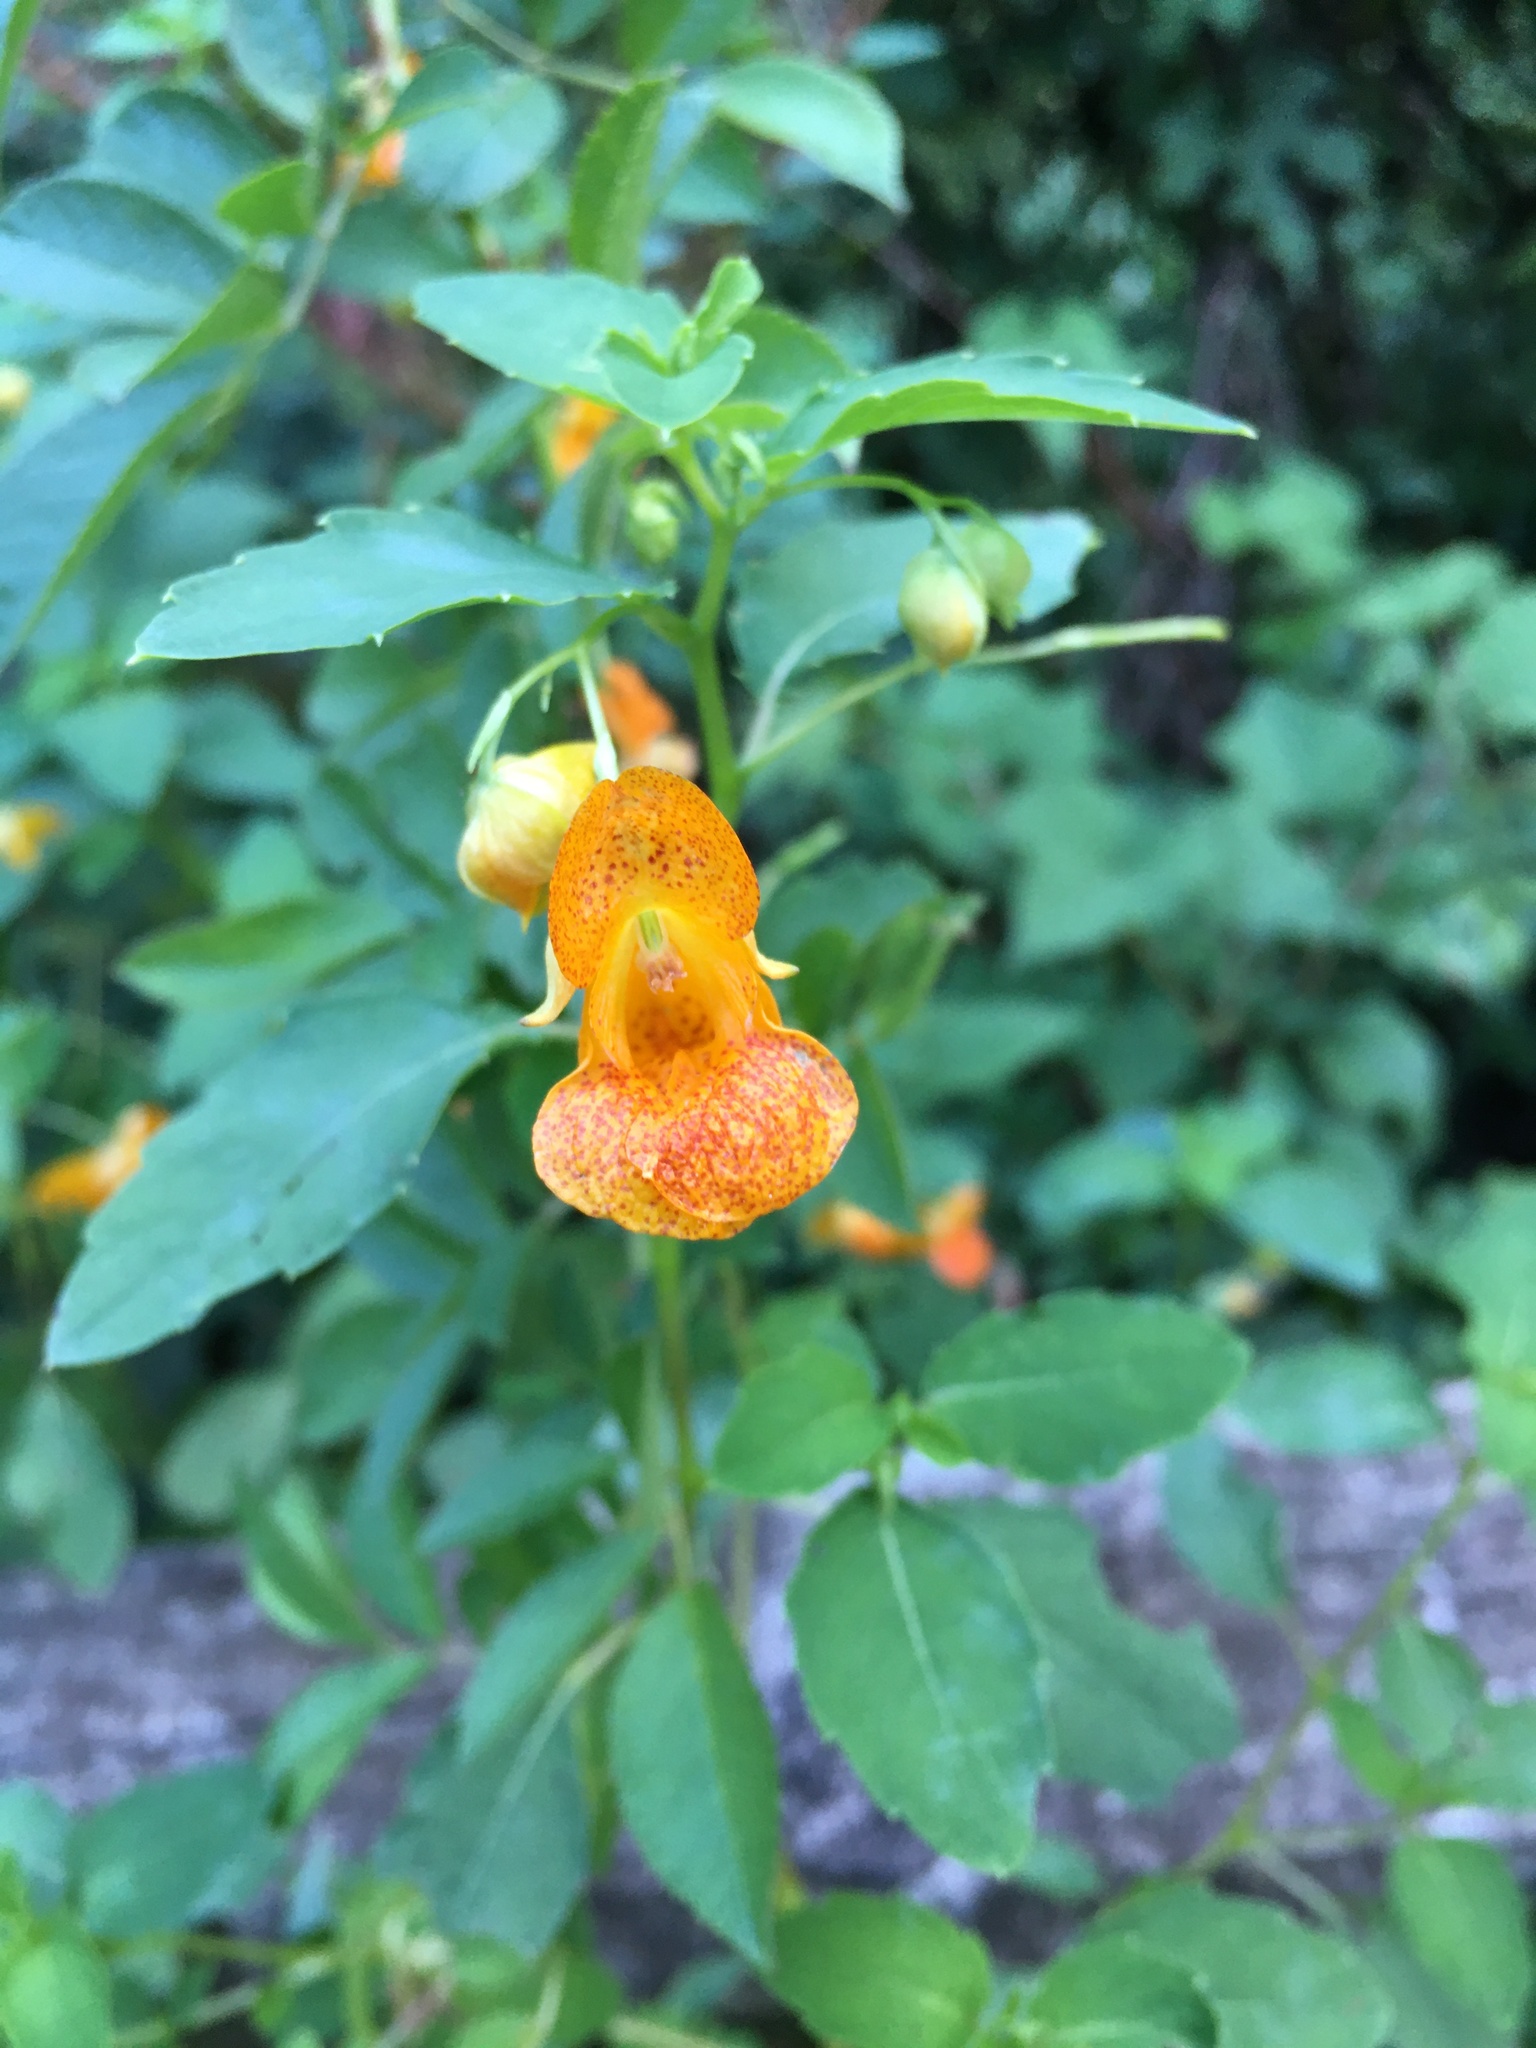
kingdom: Plantae
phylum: Tracheophyta
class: Magnoliopsida
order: Ericales
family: Balsaminaceae
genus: Impatiens
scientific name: Impatiens capensis
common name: Orange balsam
